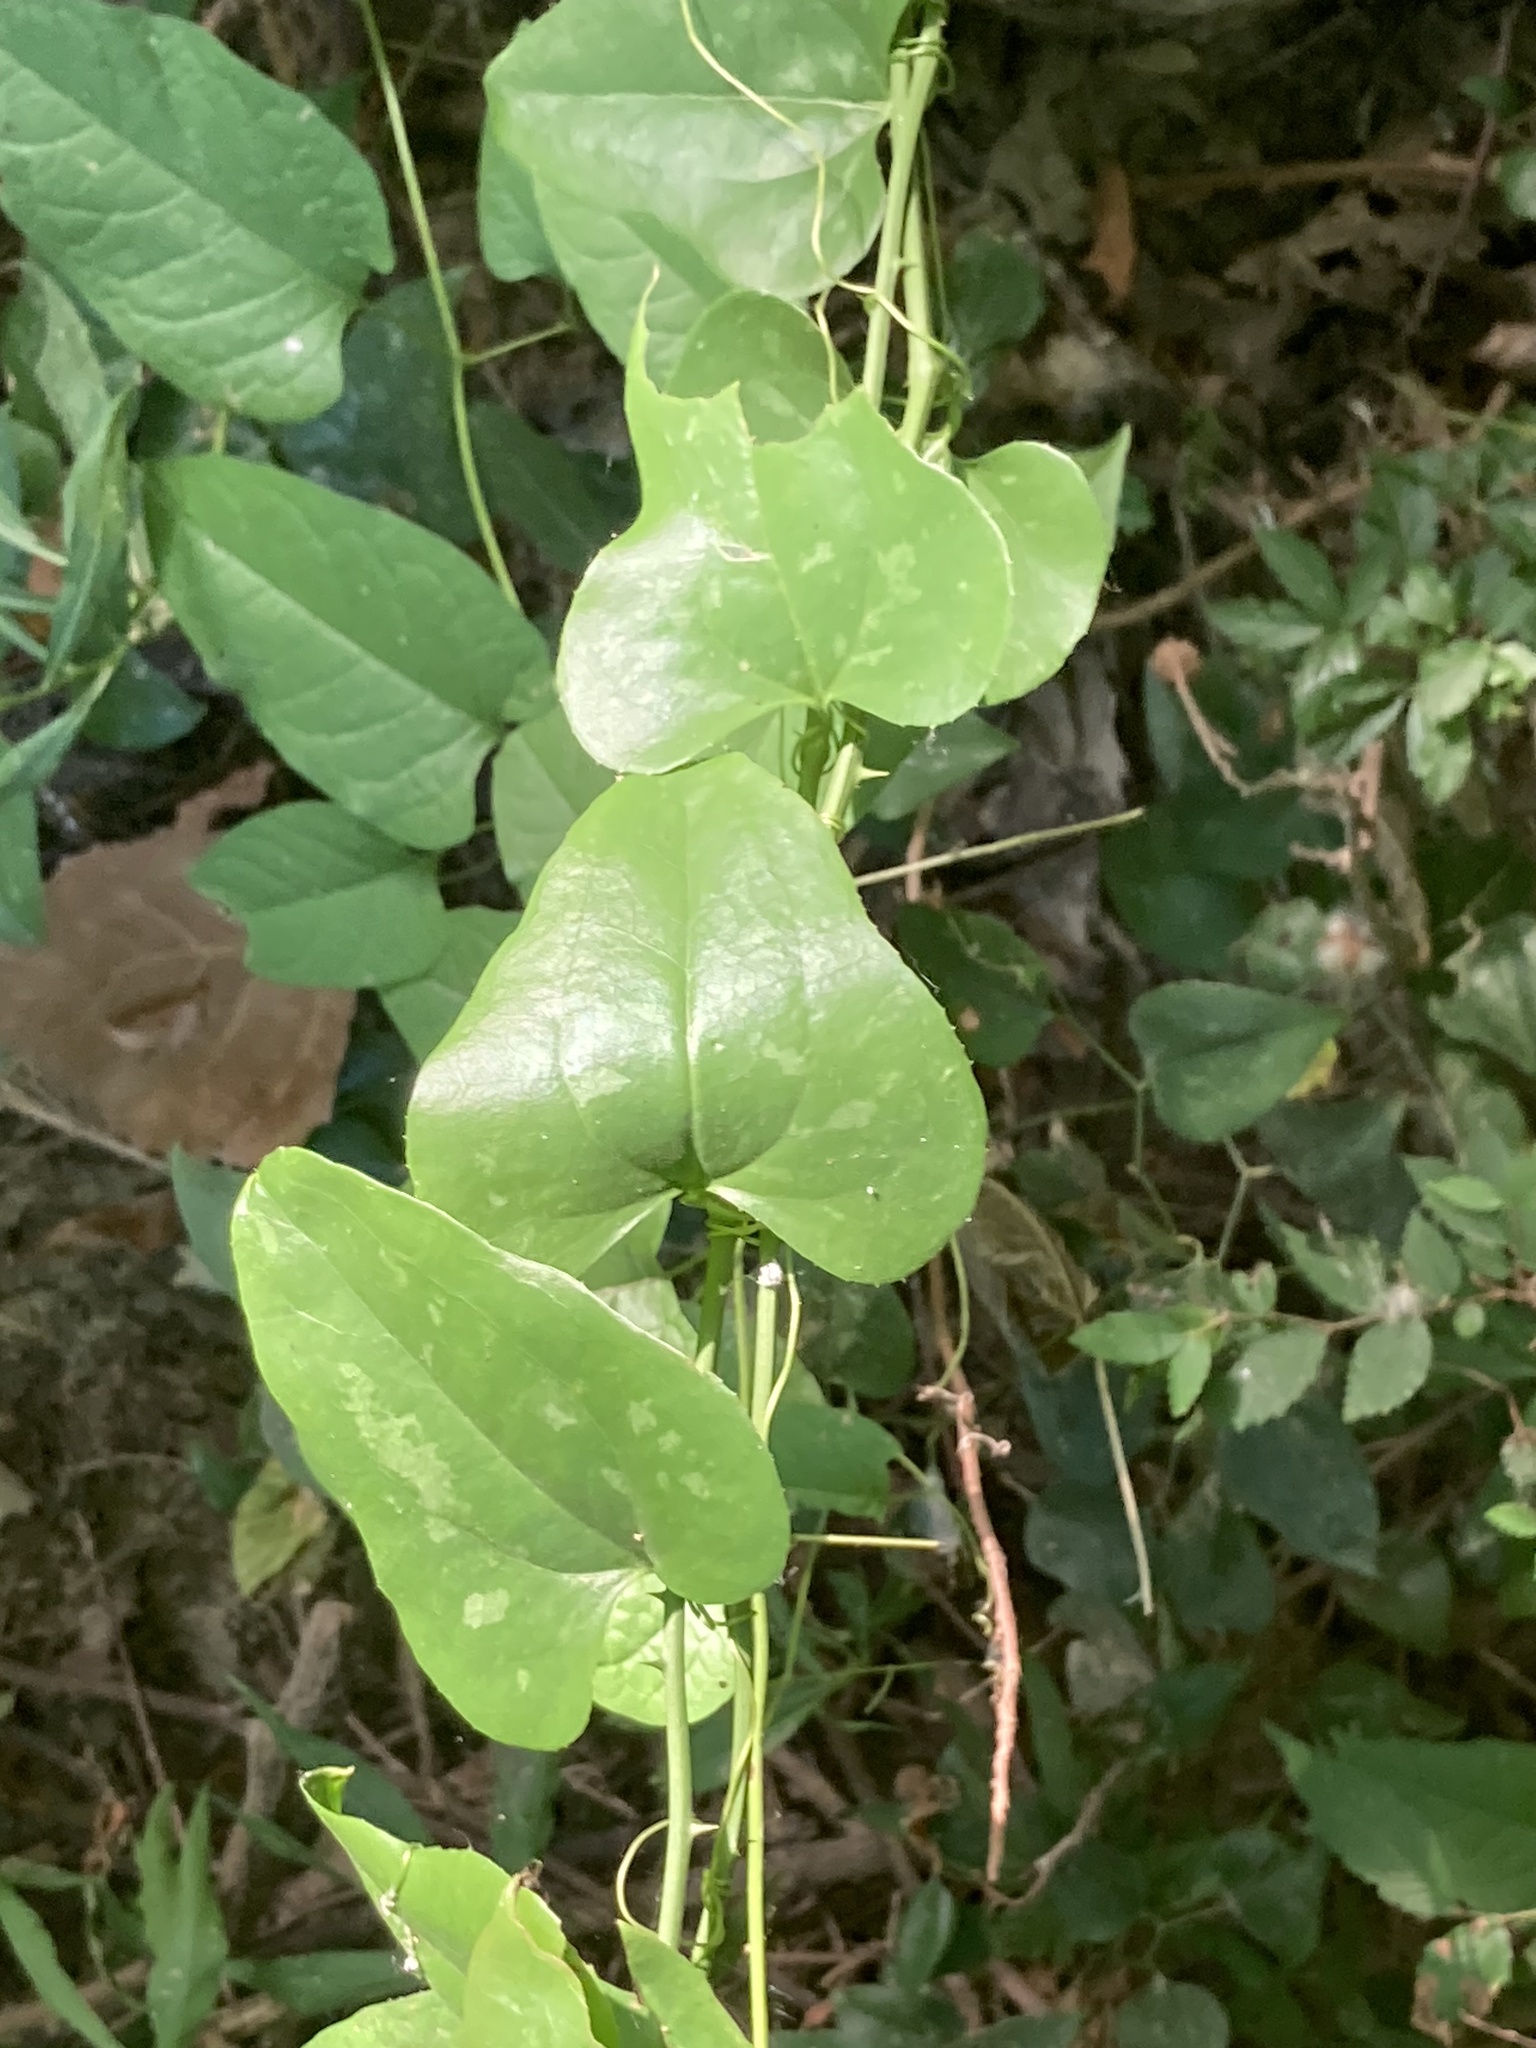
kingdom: Plantae
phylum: Tracheophyta
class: Liliopsida
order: Liliales
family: Smilacaceae
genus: Smilax
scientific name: Smilax bona-nox
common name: Catbrier
